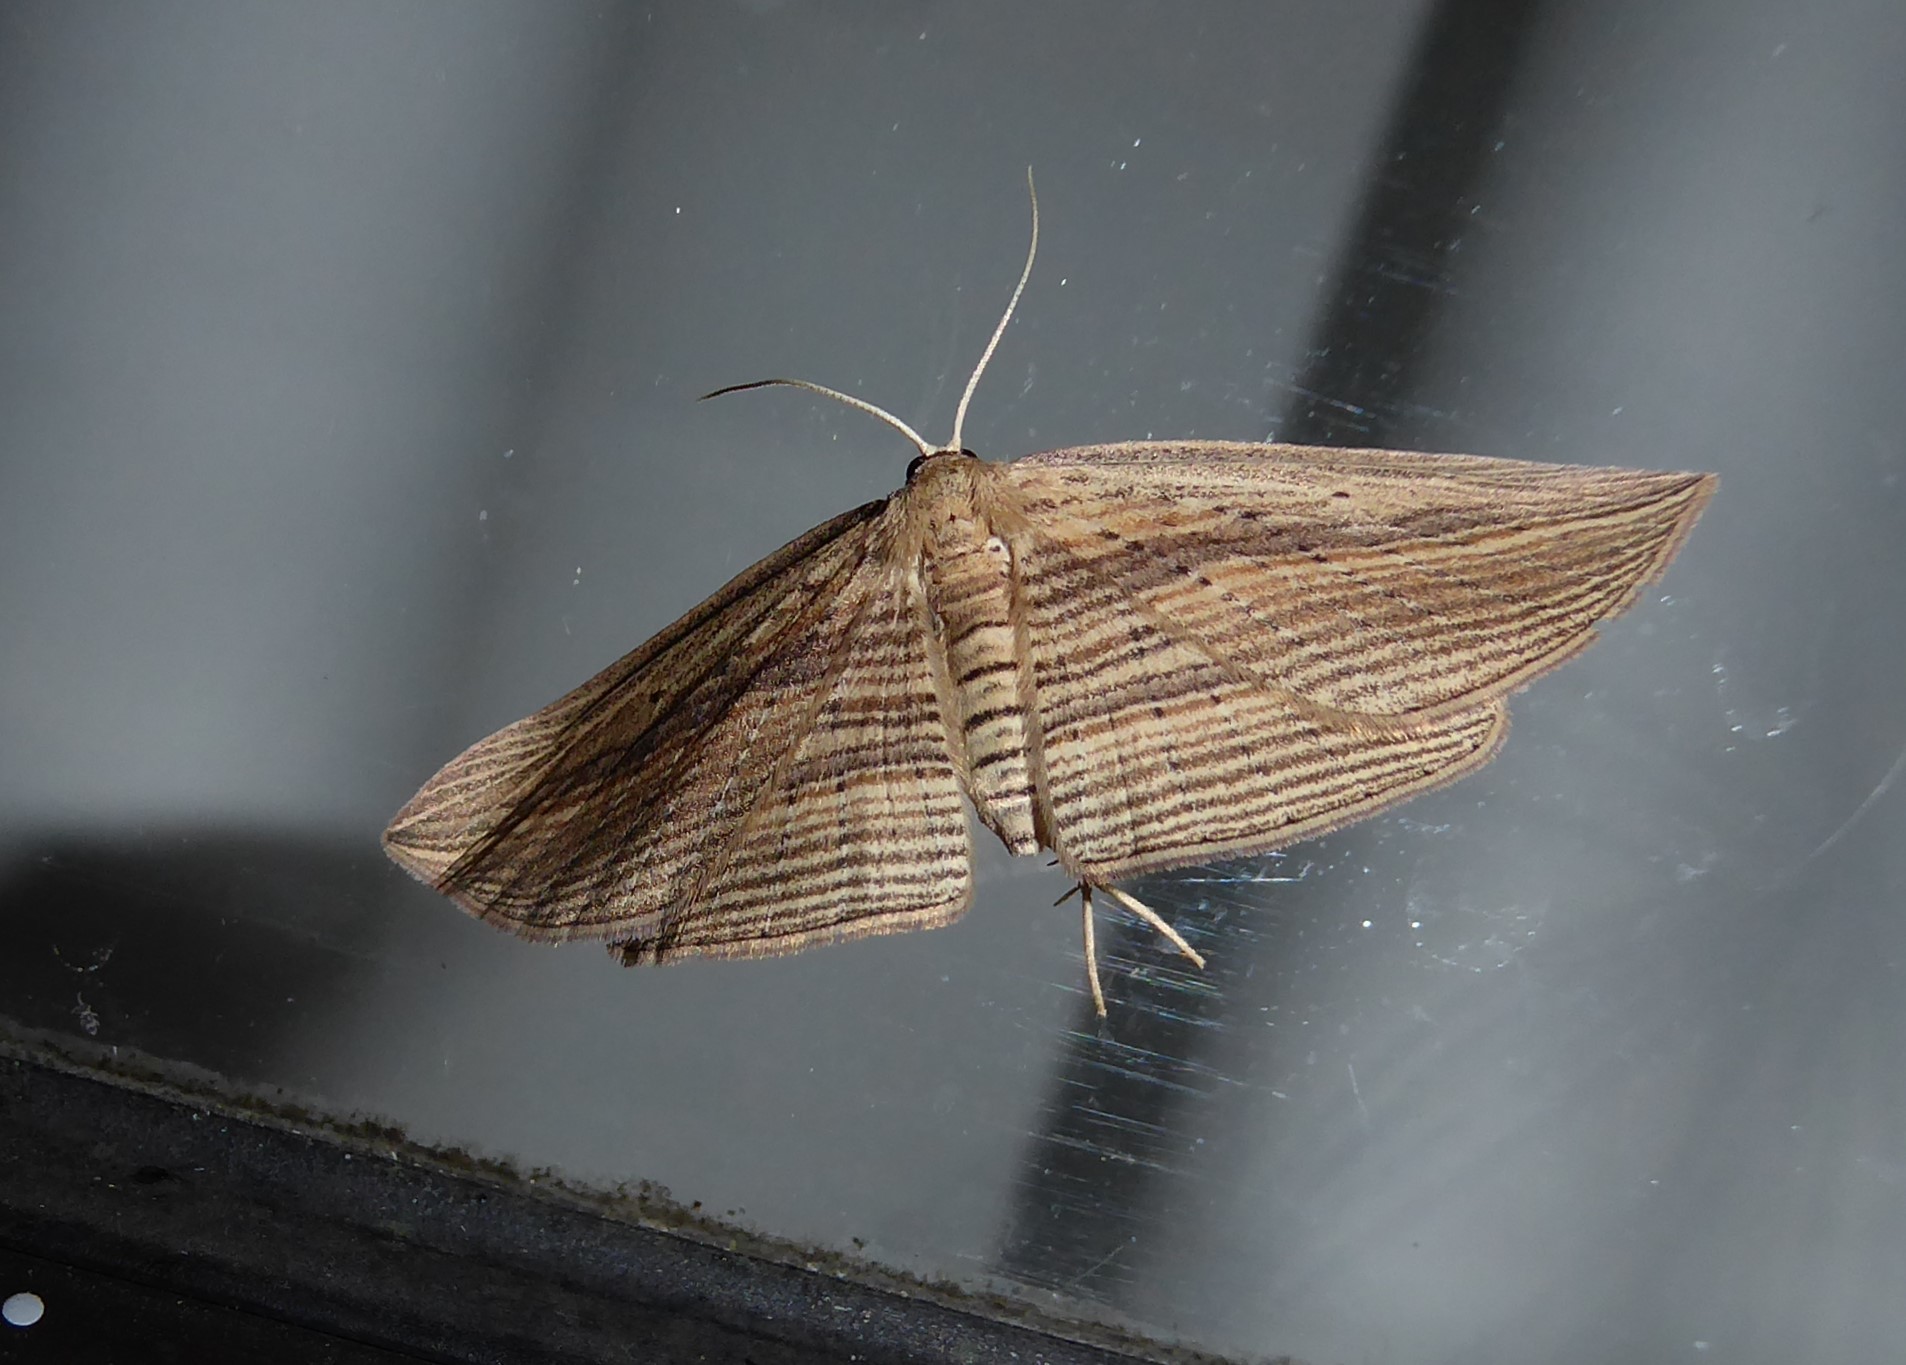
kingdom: Animalia
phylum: Arthropoda
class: Insecta
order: Lepidoptera
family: Geometridae
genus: Epiphryne
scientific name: Epiphryne verriculata
